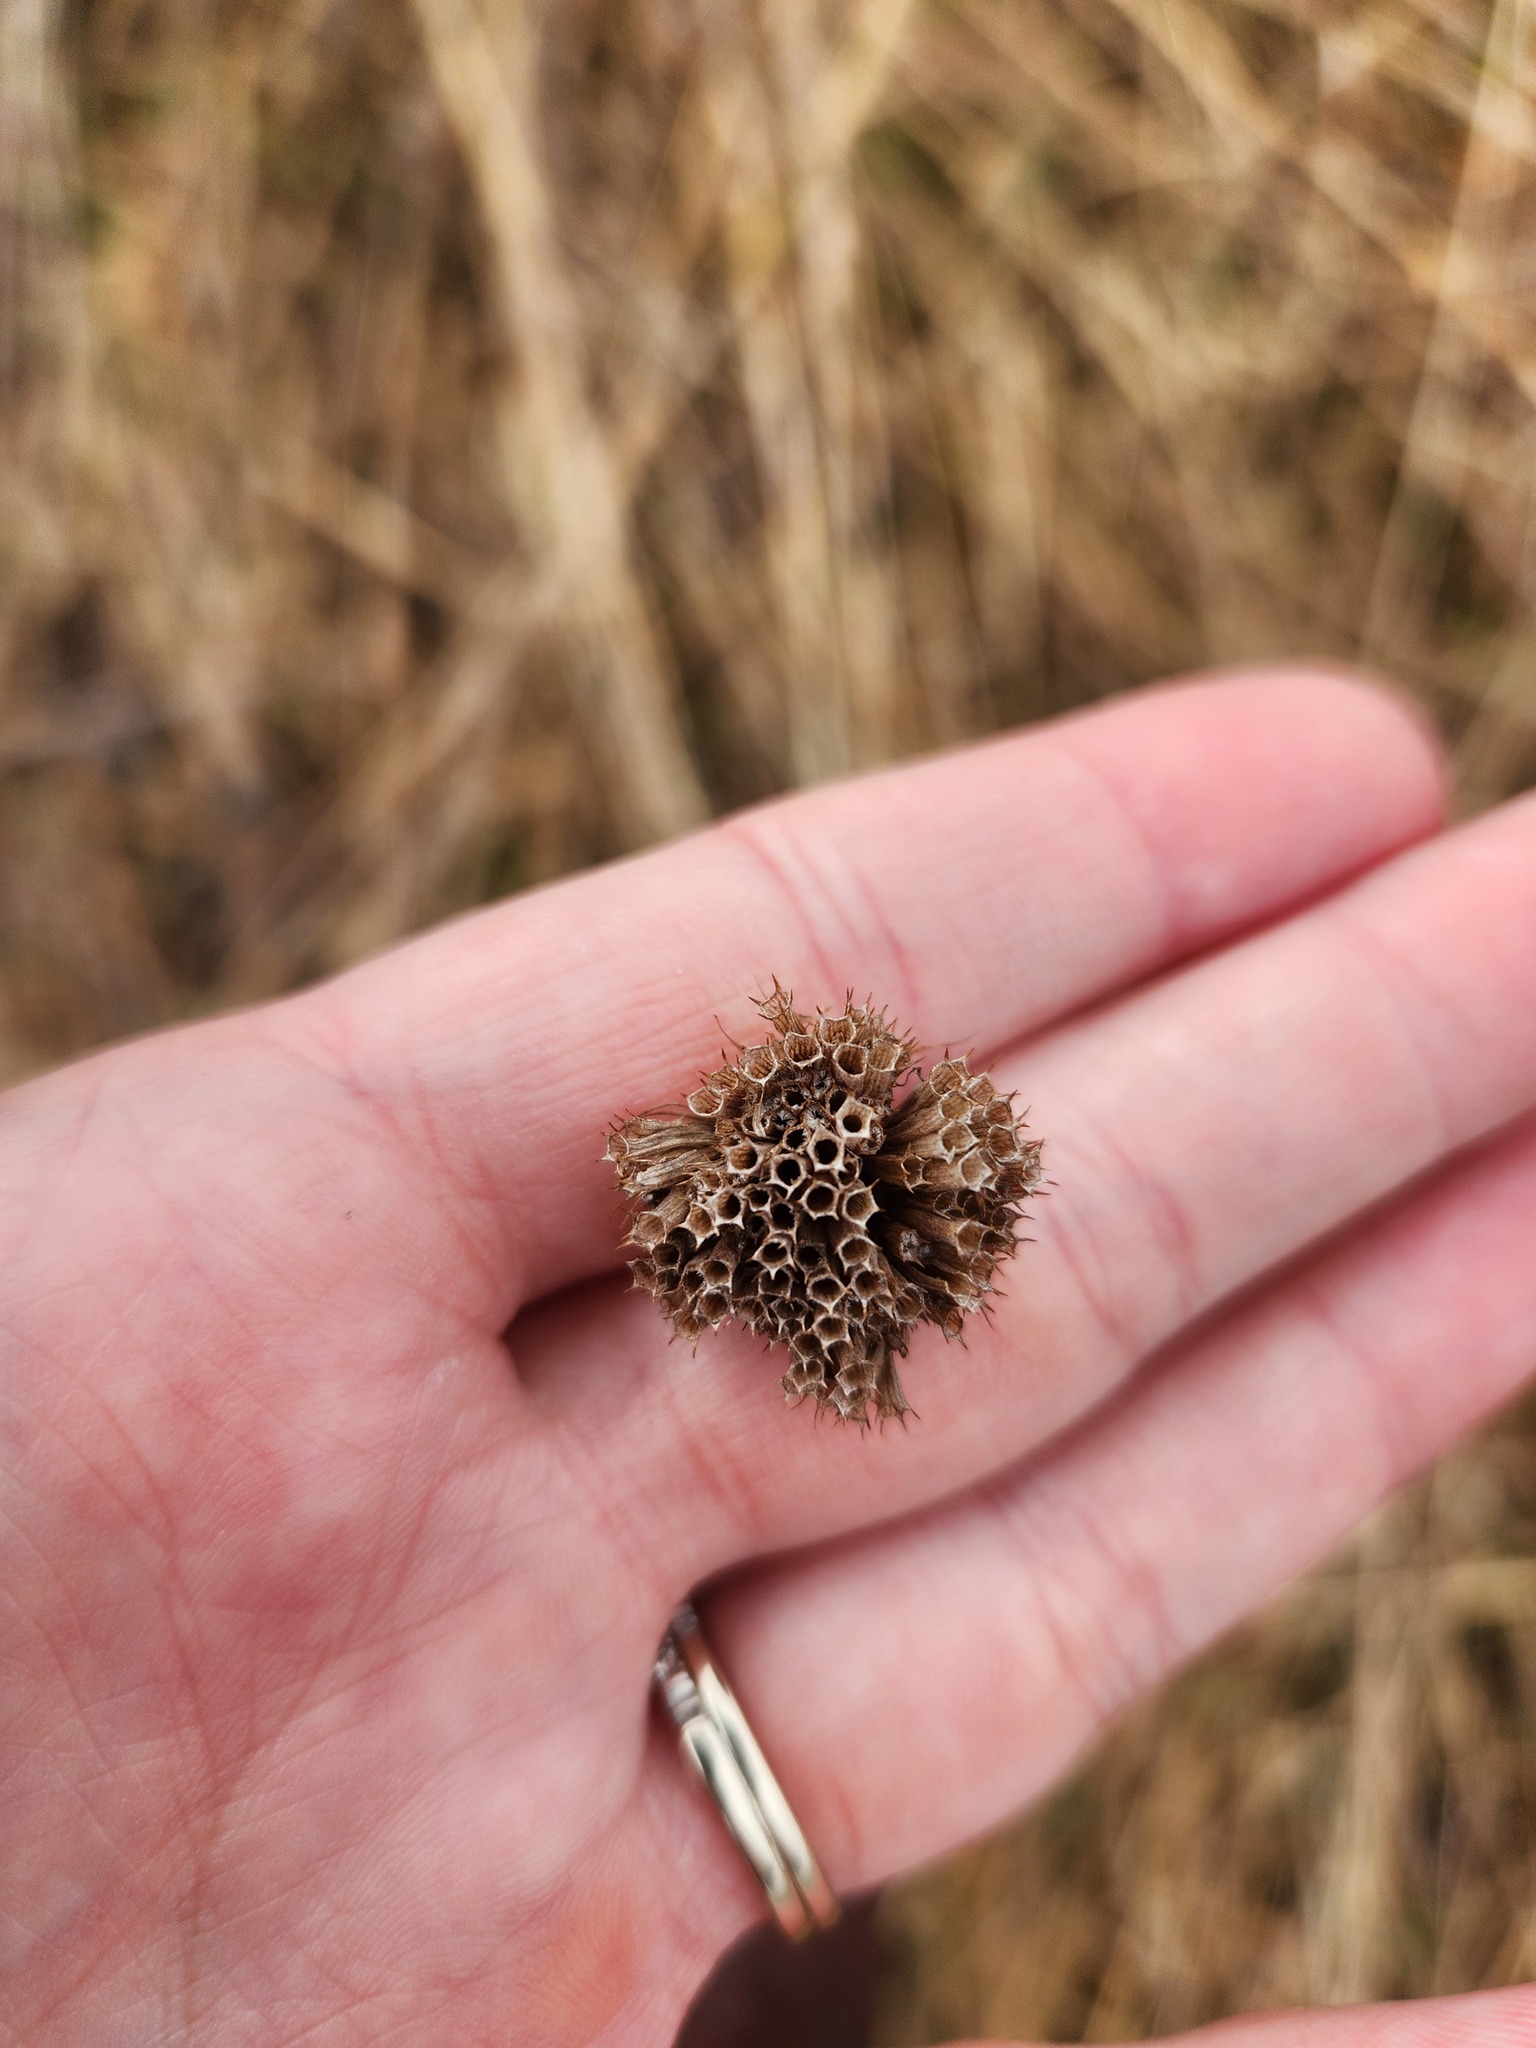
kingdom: Plantae
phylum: Tracheophyta
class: Magnoliopsida
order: Lamiales
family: Lamiaceae
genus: Monarda
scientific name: Monarda fistulosa
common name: Purple beebalm
